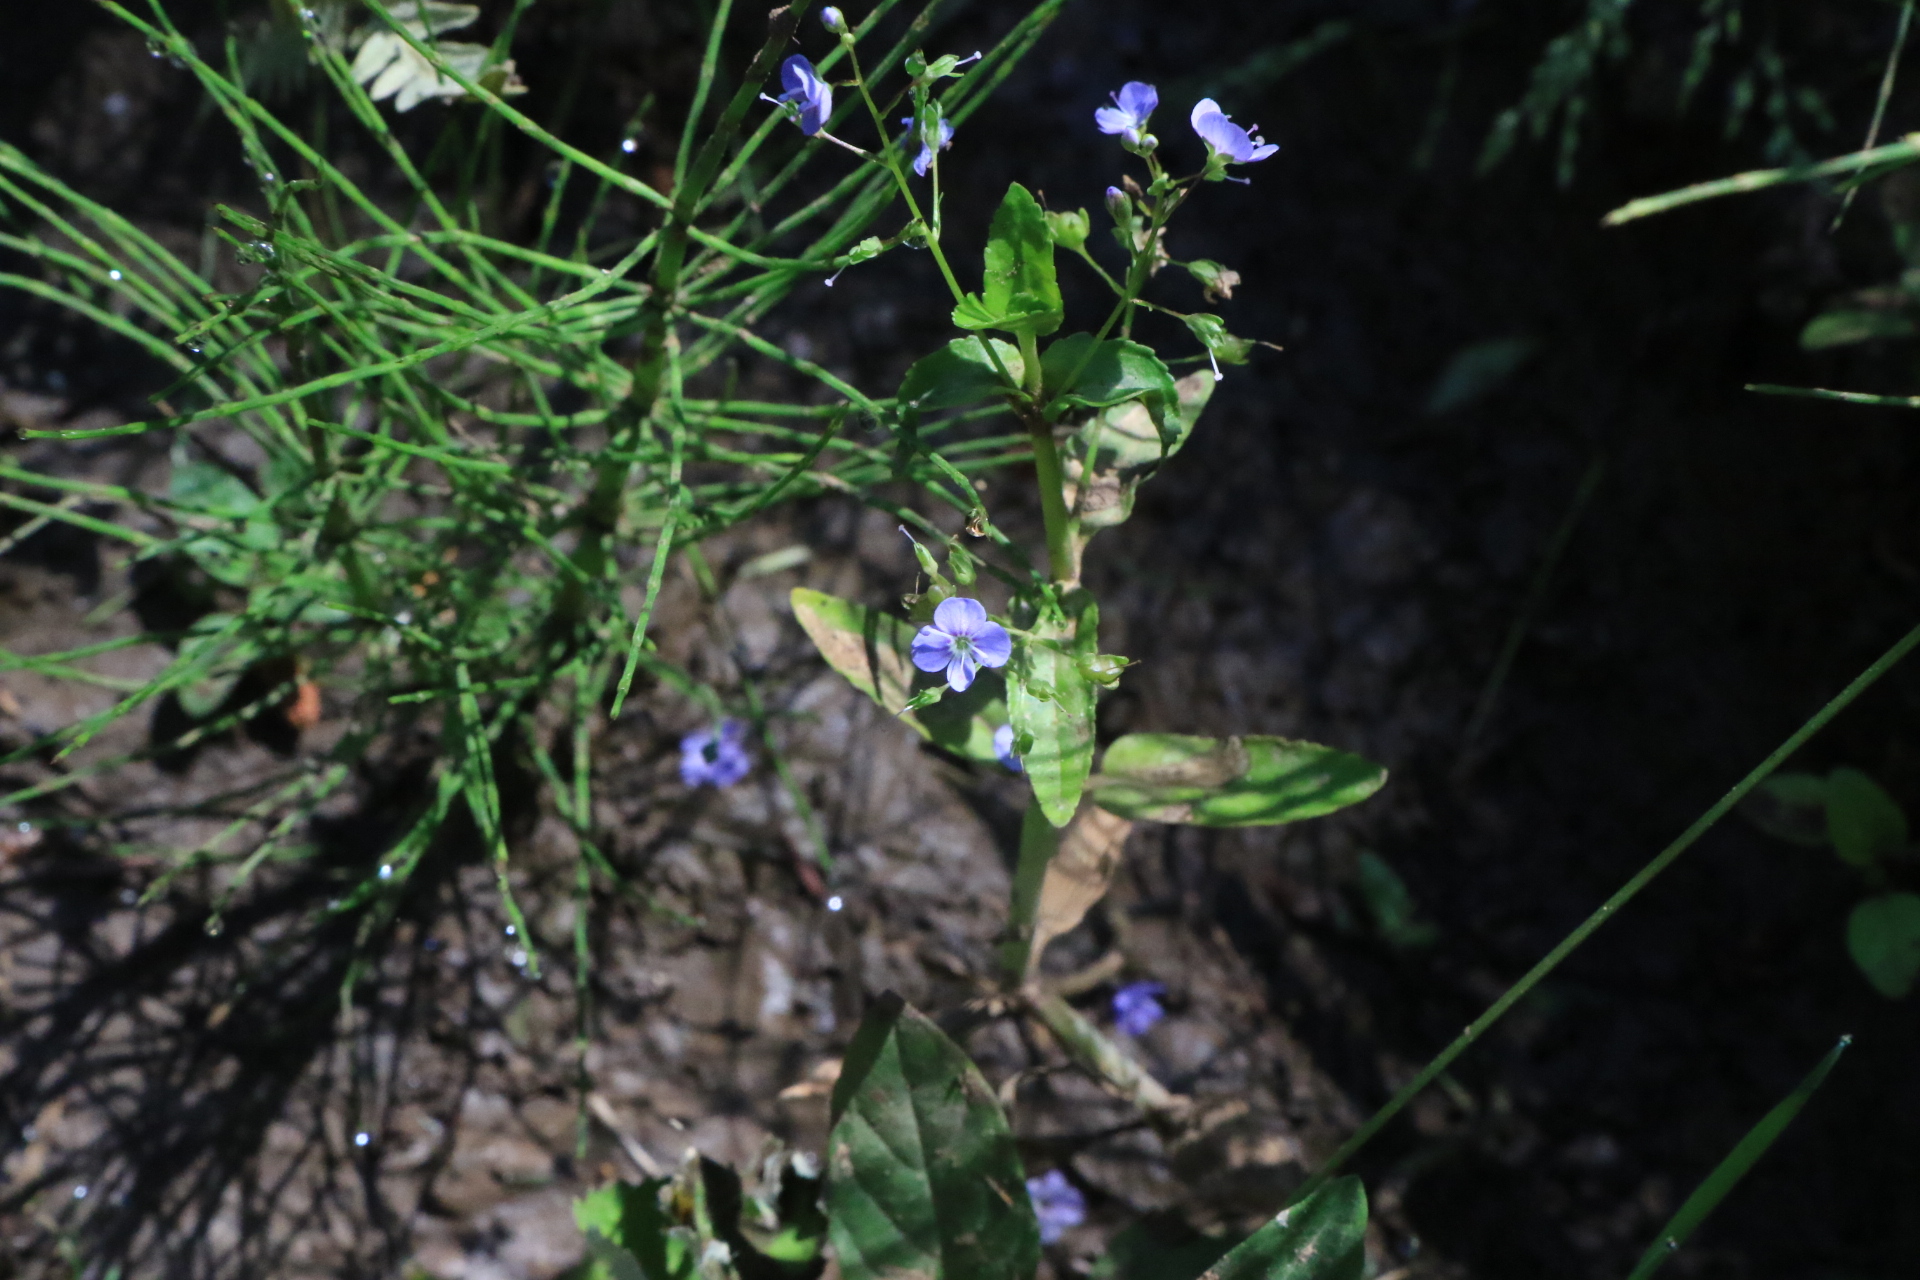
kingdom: Plantae
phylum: Tracheophyta
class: Magnoliopsida
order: Lamiales
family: Plantaginaceae
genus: Veronica
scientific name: Veronica americana
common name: American brooklime
